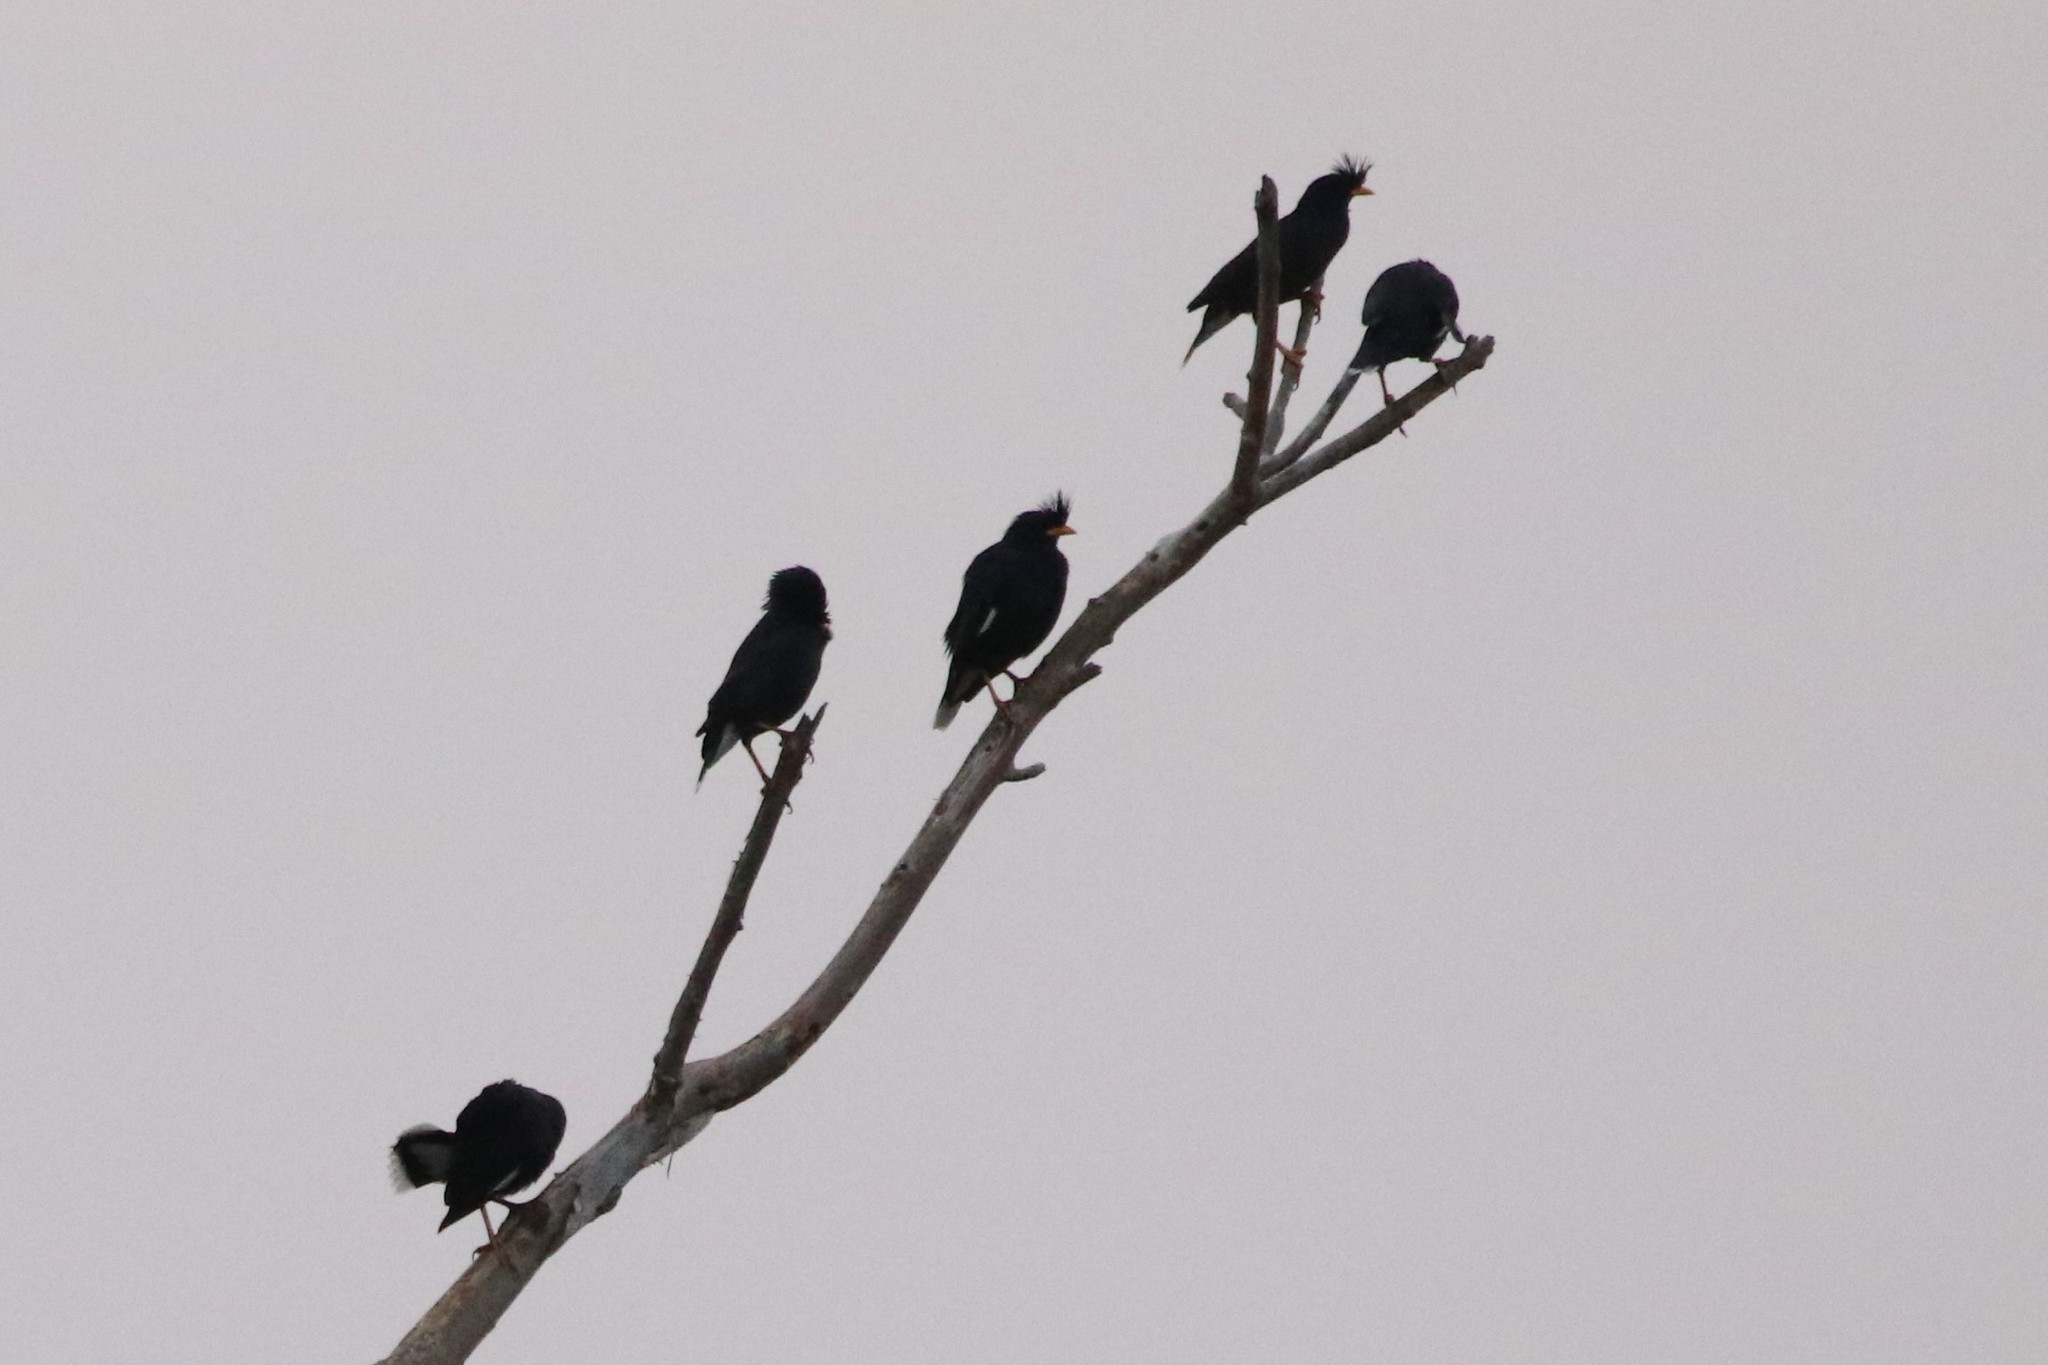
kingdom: Animalia
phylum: Chordata
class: Aves
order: Passeriformes
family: Sturnidae
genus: Acridotheres
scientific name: Acridotheres grandis
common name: Great myna
